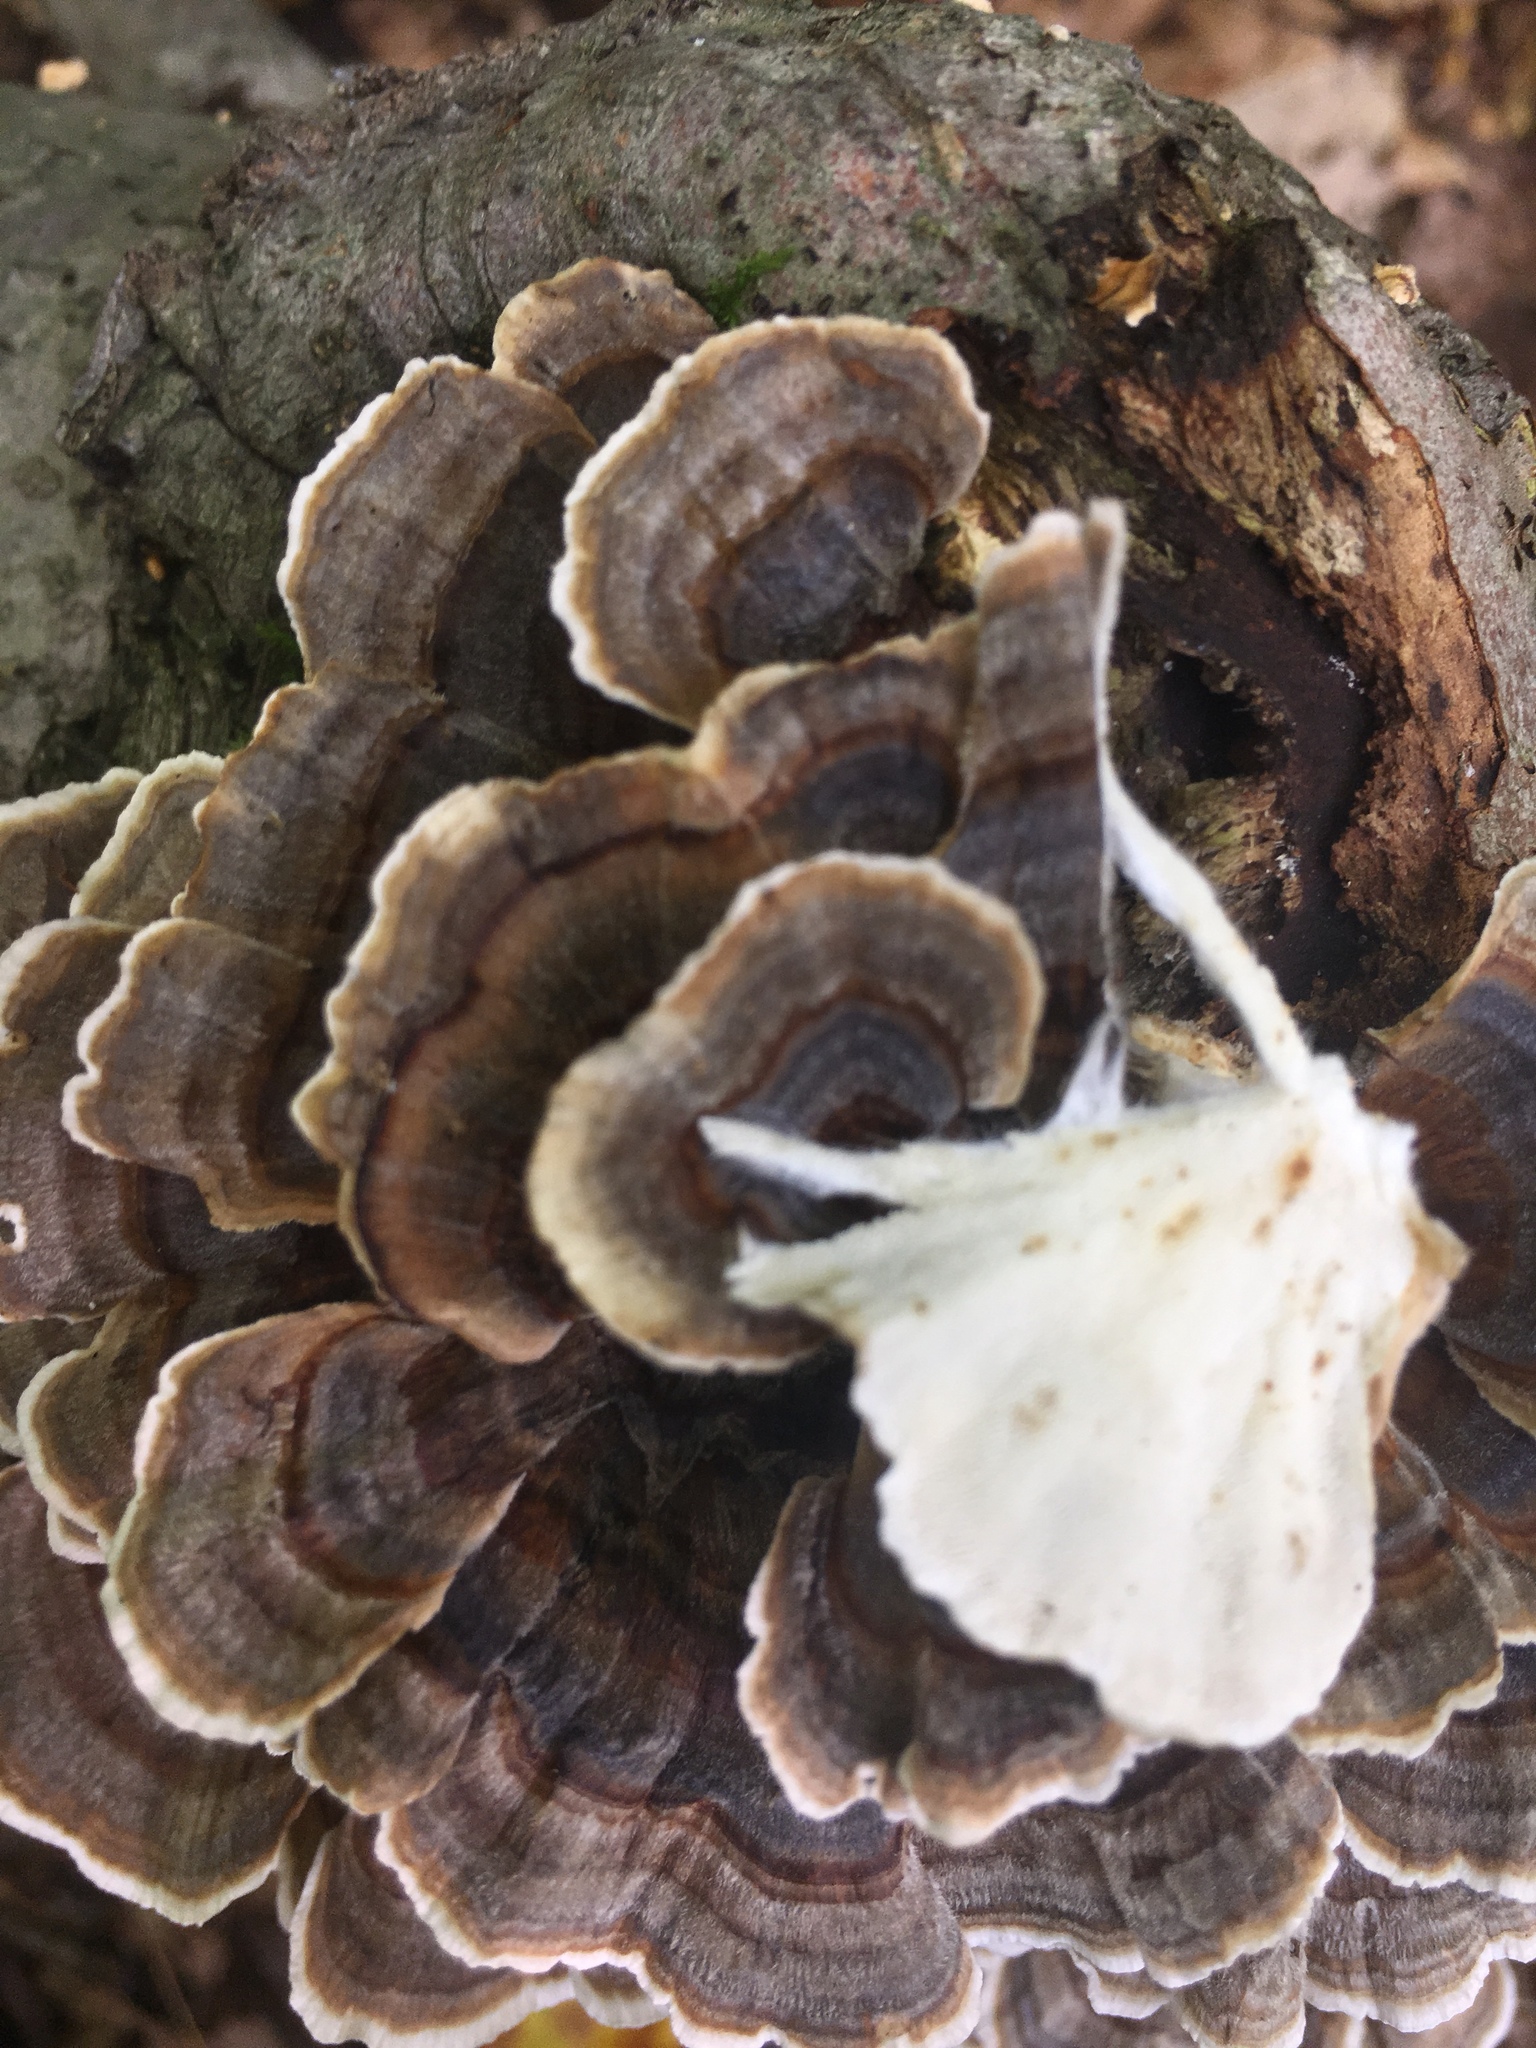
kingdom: Fungi
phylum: Basidiomycota
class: Agaricomycetes
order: Polyporales
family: Polyporaceae
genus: Trametes
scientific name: Trametes versicolor
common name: Turkeytail
